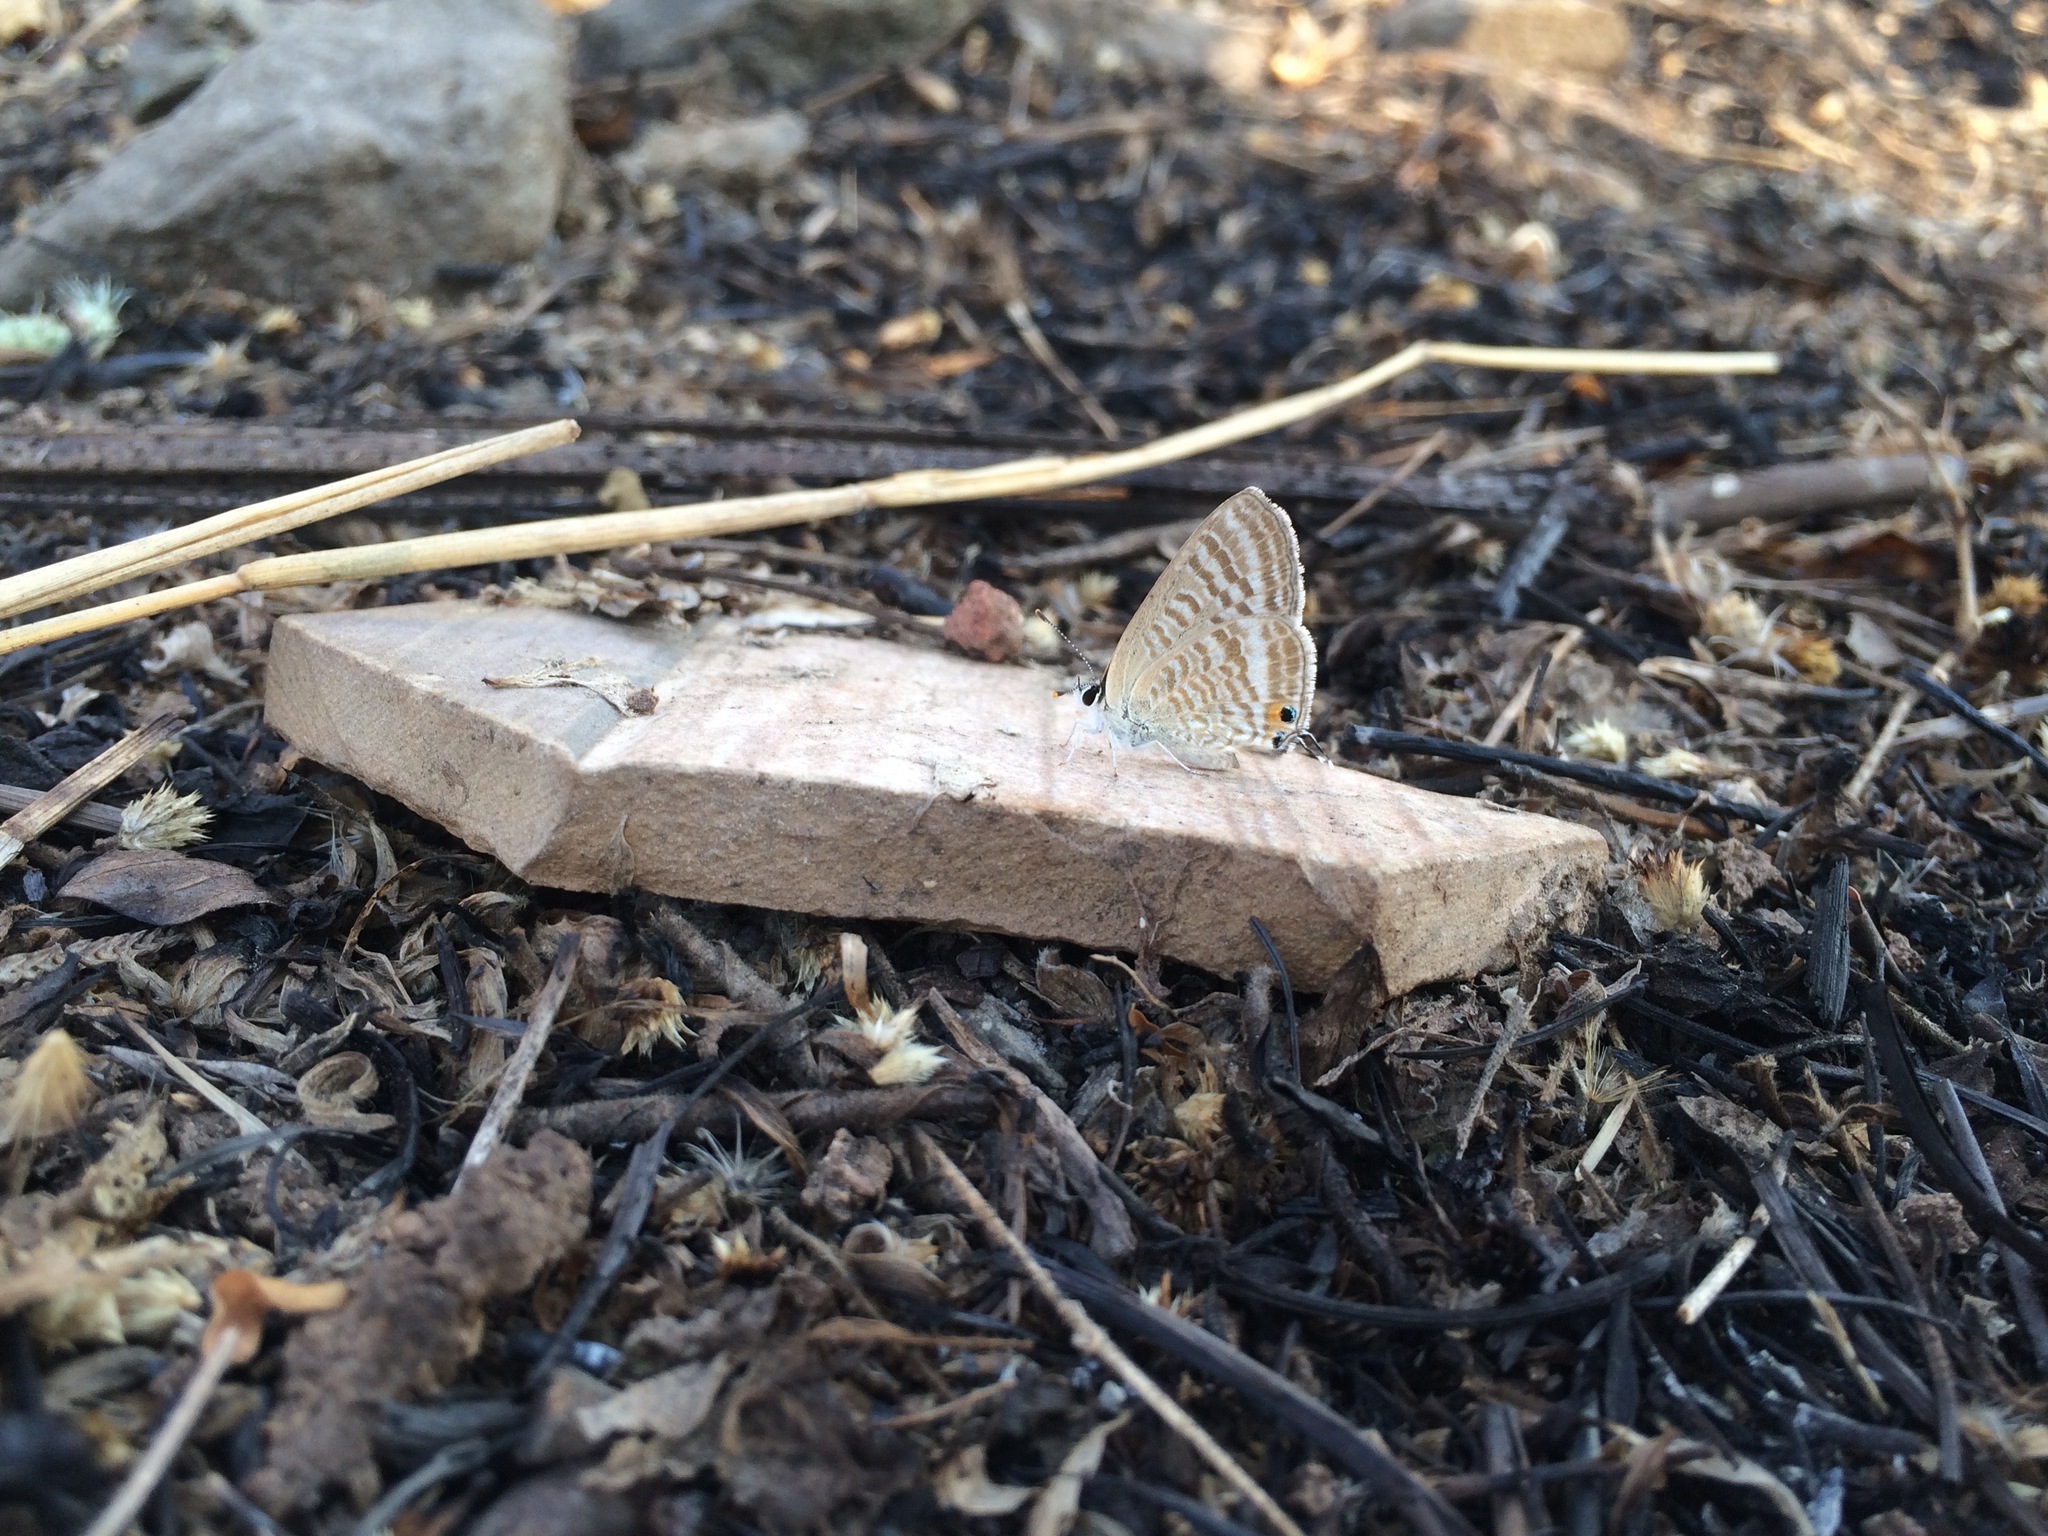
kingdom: Animalia
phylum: Arthropoda
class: Insecta
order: Lepidoptera
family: Lycaenidae
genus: Lampides
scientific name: Lampides boeticus
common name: Long-tailed blue
